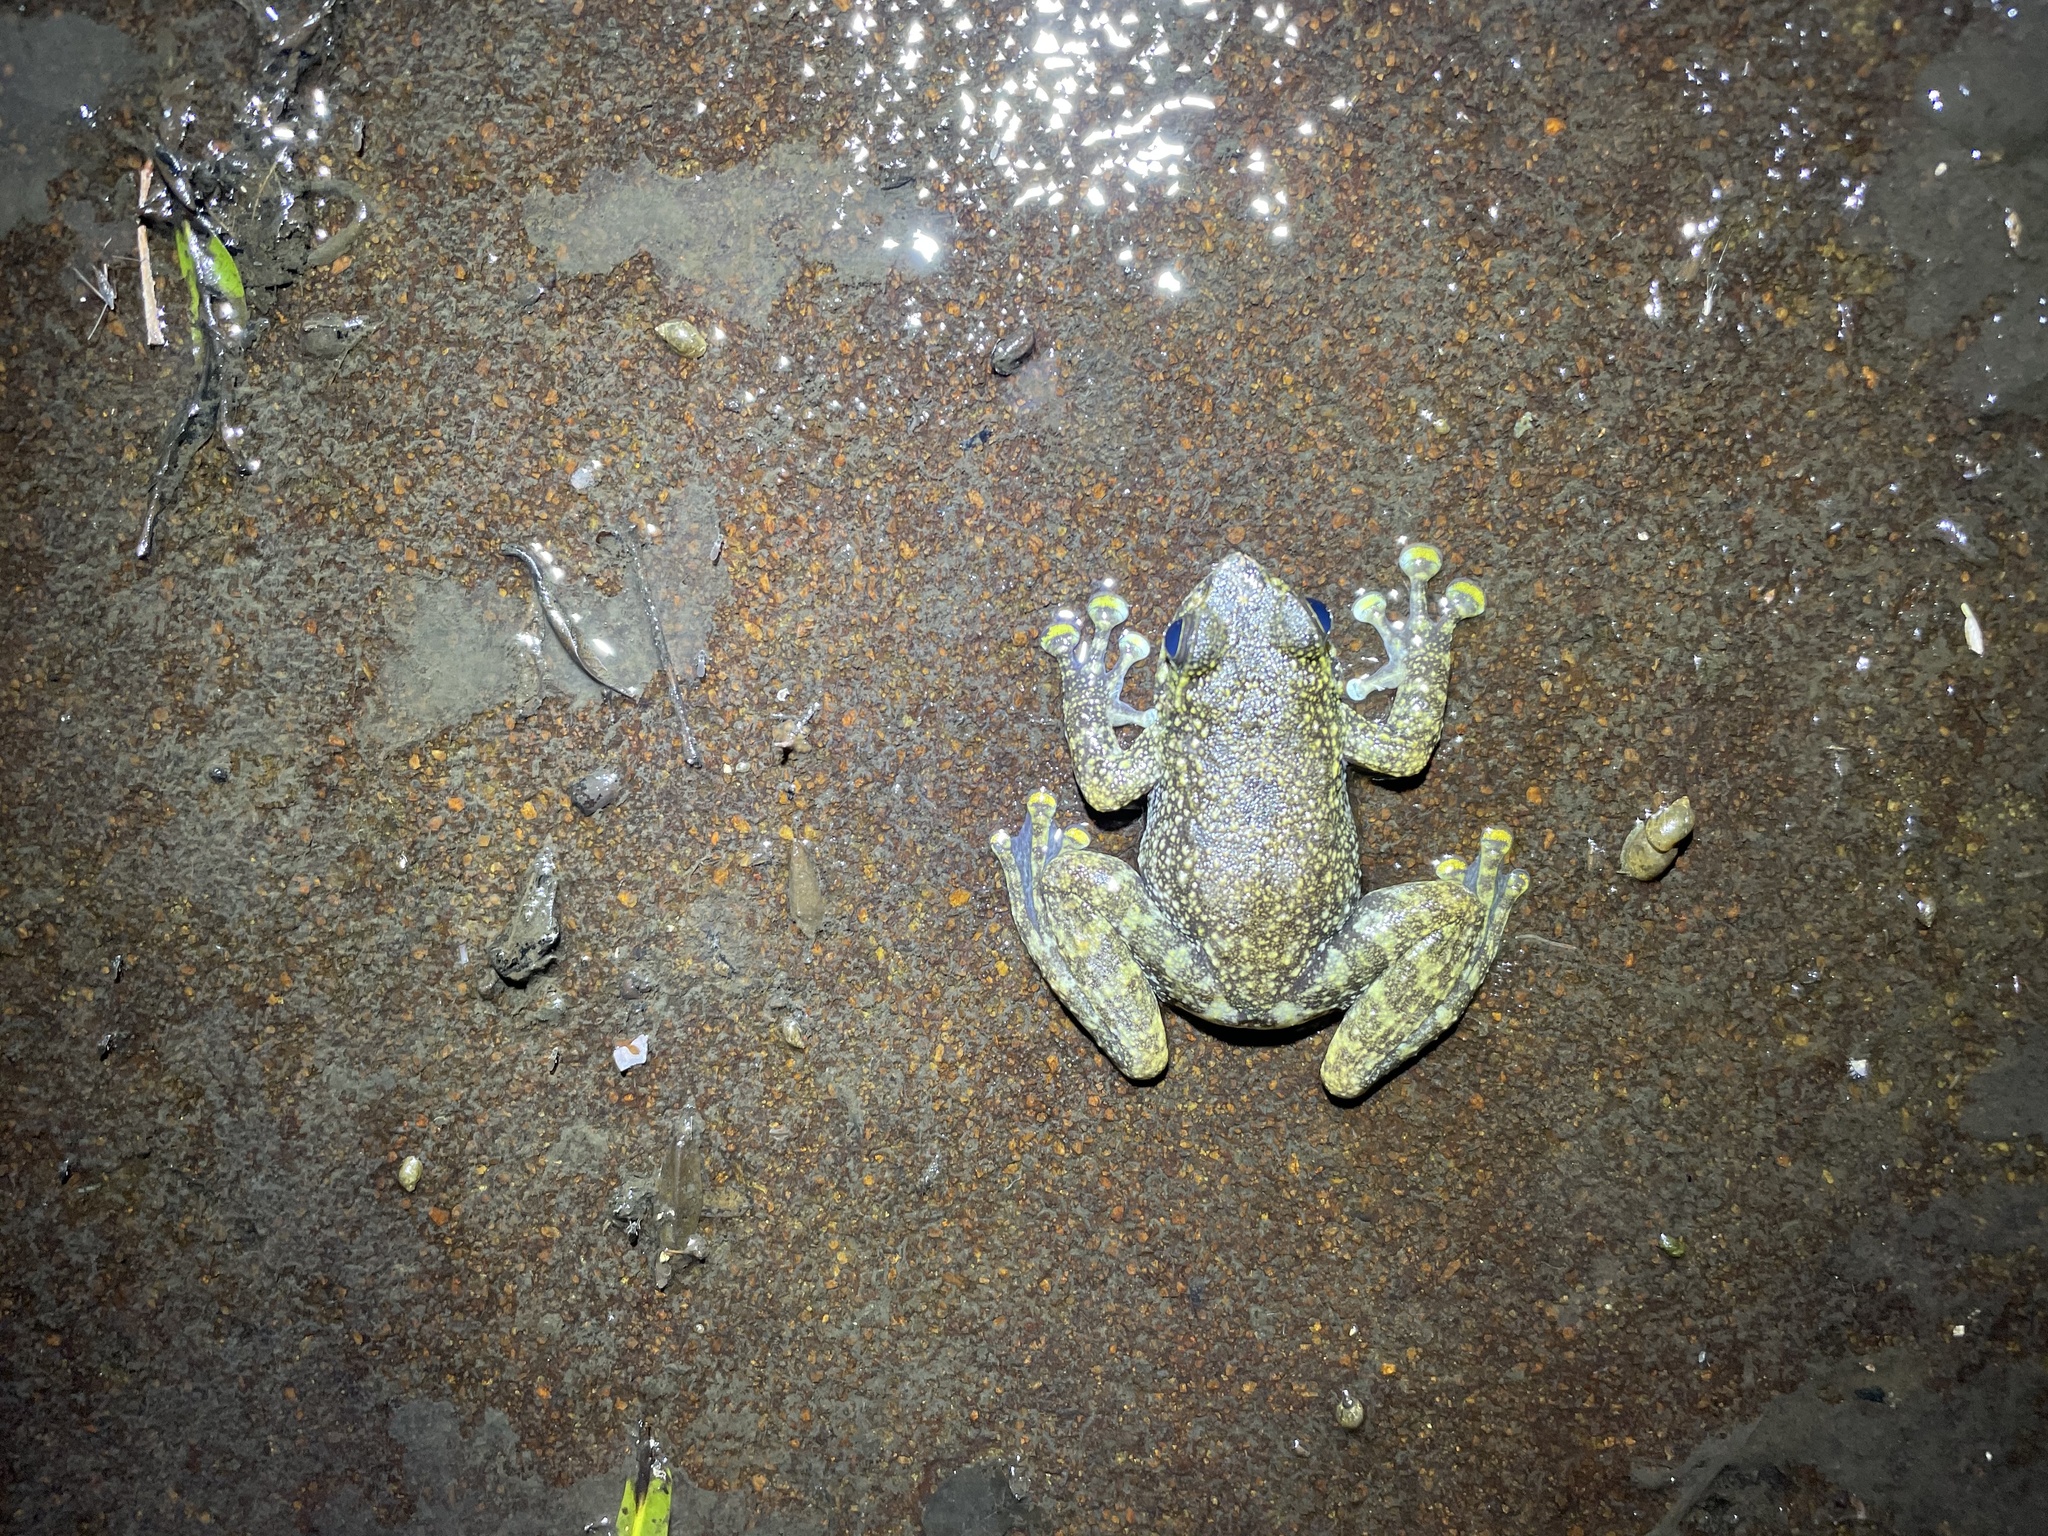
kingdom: Animalia
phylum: Chordata
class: Amphibia
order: Anura
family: Ranidae
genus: Amolops
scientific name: Amolops hongkongensis
